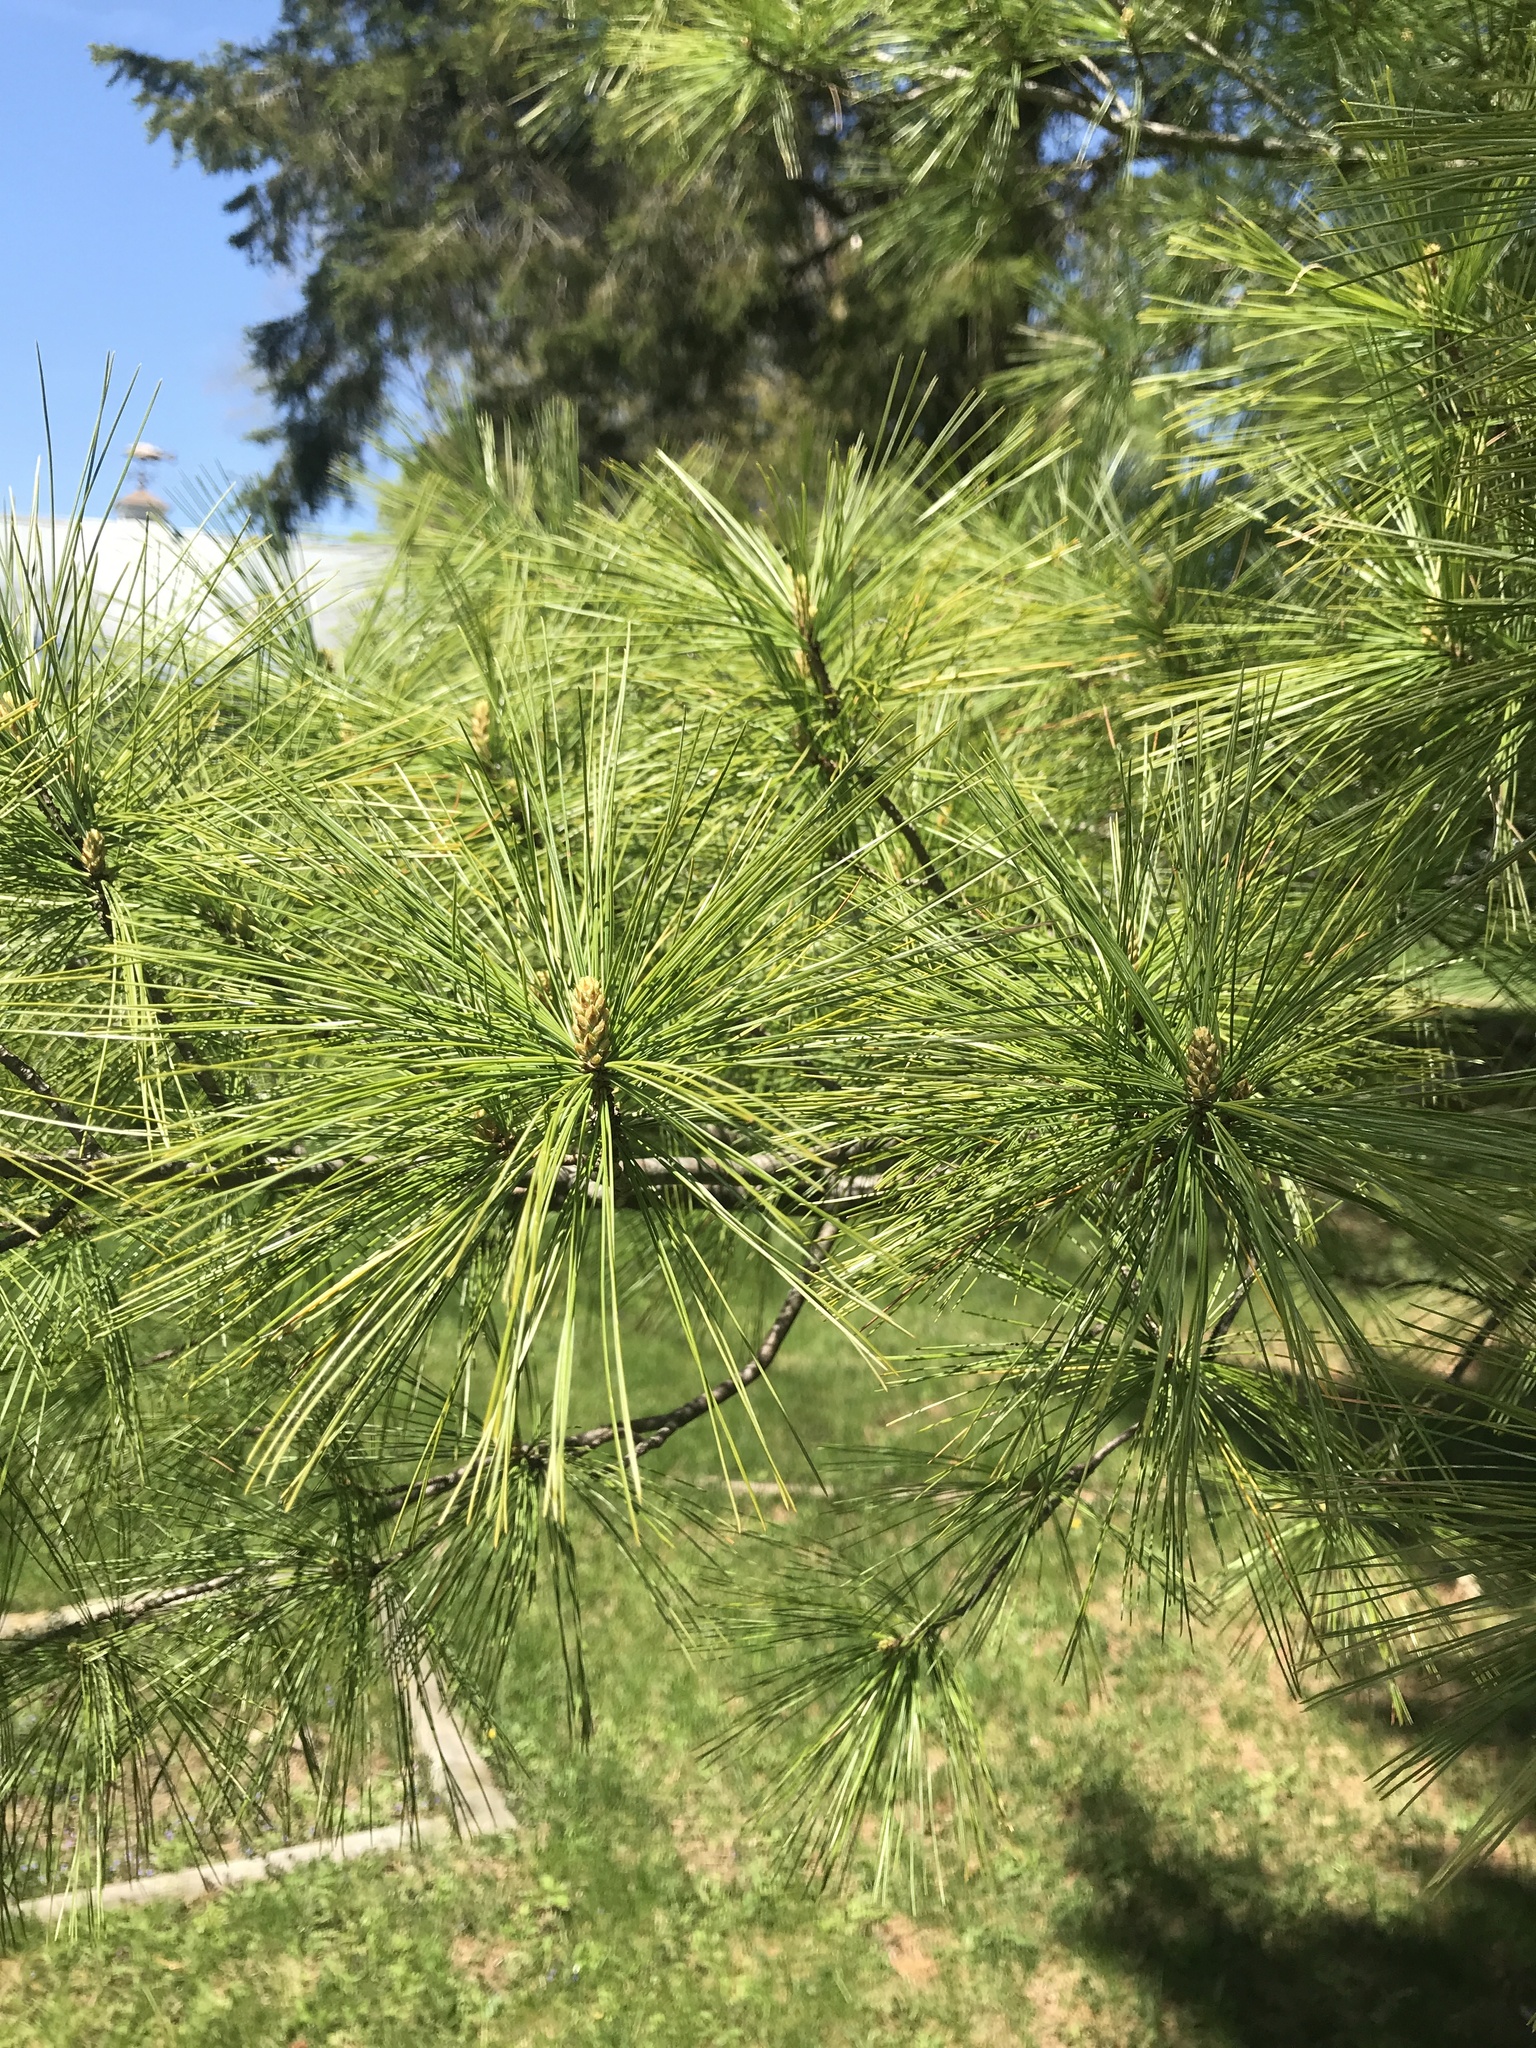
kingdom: Plantae
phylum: Tracheophyta
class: Pinopsida
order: Pinales
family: Pinaceae
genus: Pinus
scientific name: Pinus strobus
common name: Weymouth pine
